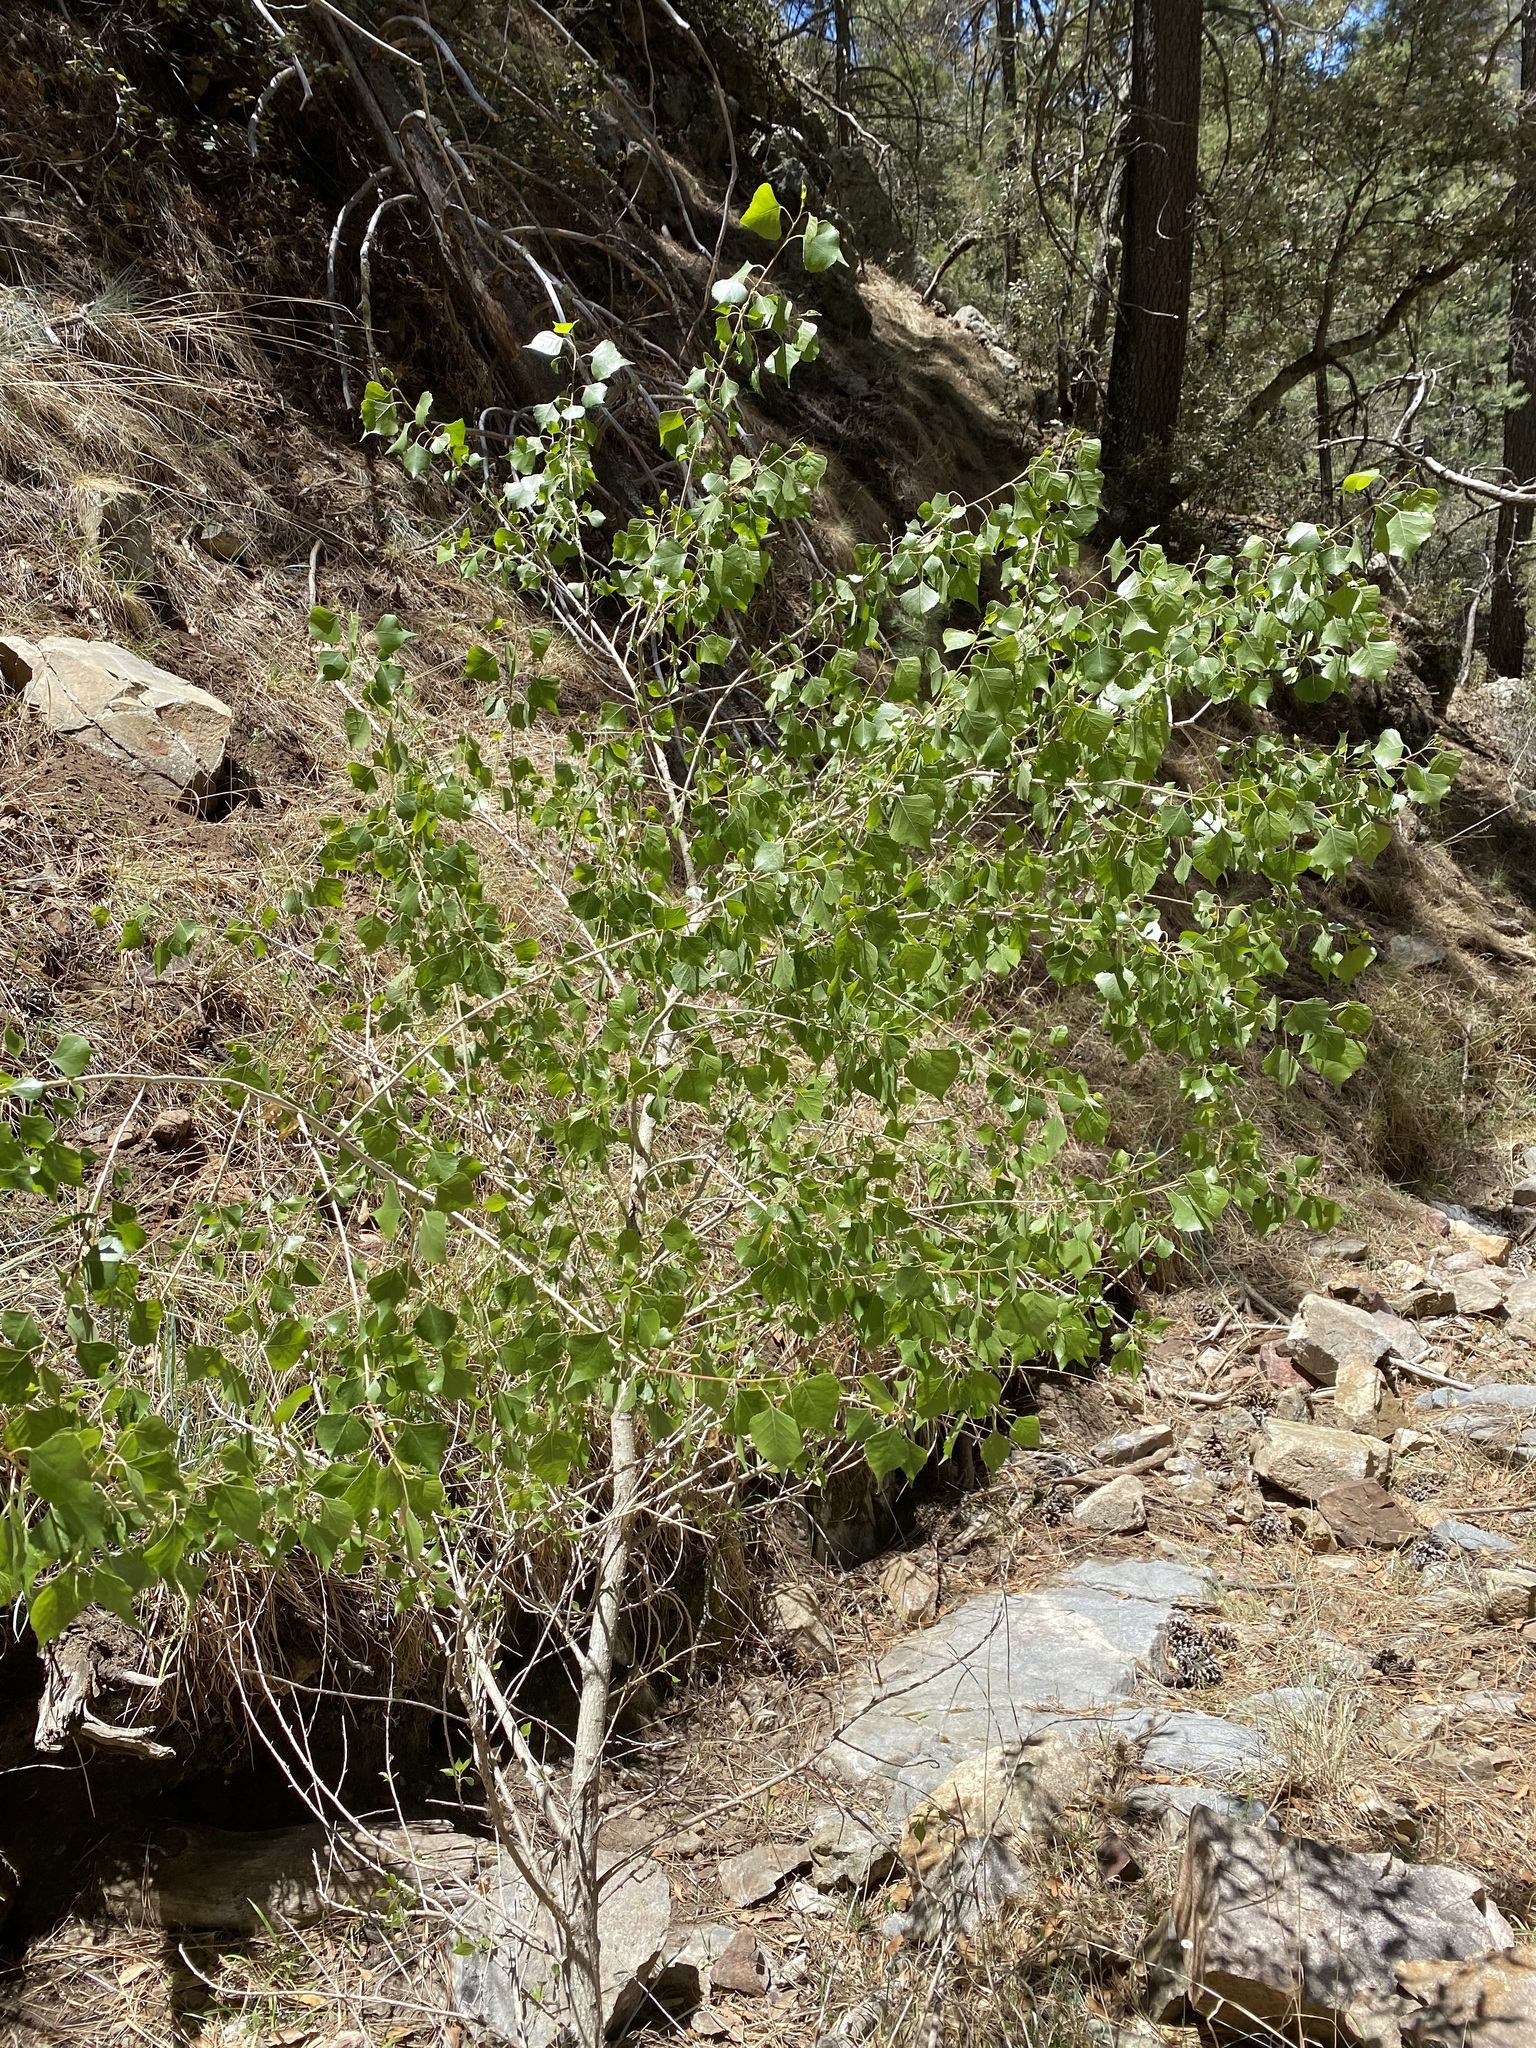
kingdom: Plantae
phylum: Tracheophyta
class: Magnoliopsida
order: Malpighiales
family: Salicaceae
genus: Populus
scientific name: Populus fremontii
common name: Fremont's cottonwood
